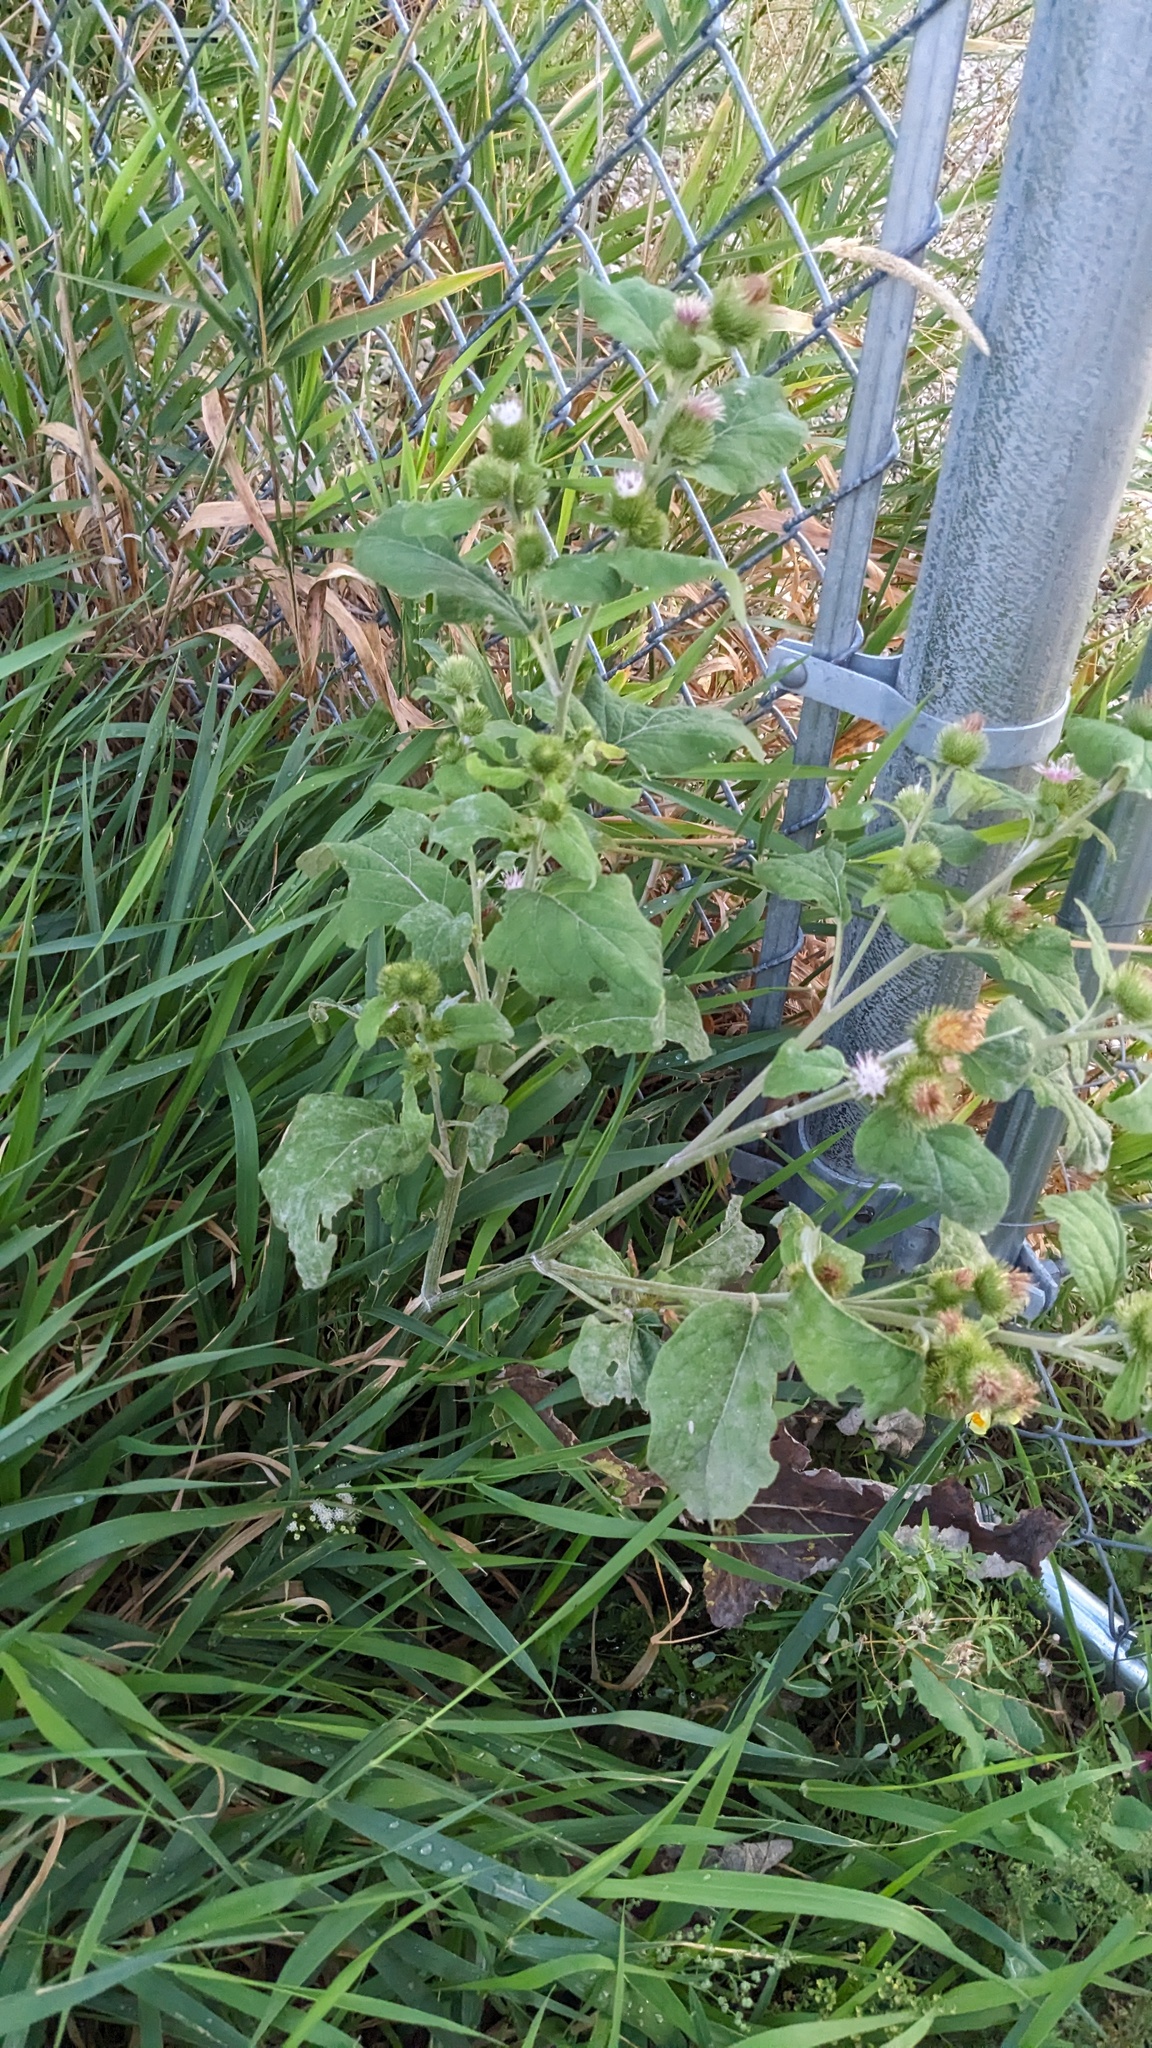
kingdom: Plantae
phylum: Tracheophyta
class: Magnoliopsida
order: Asterales
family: Asteraceae
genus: Arctium
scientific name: Arctium minus
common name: Lesser burdock
